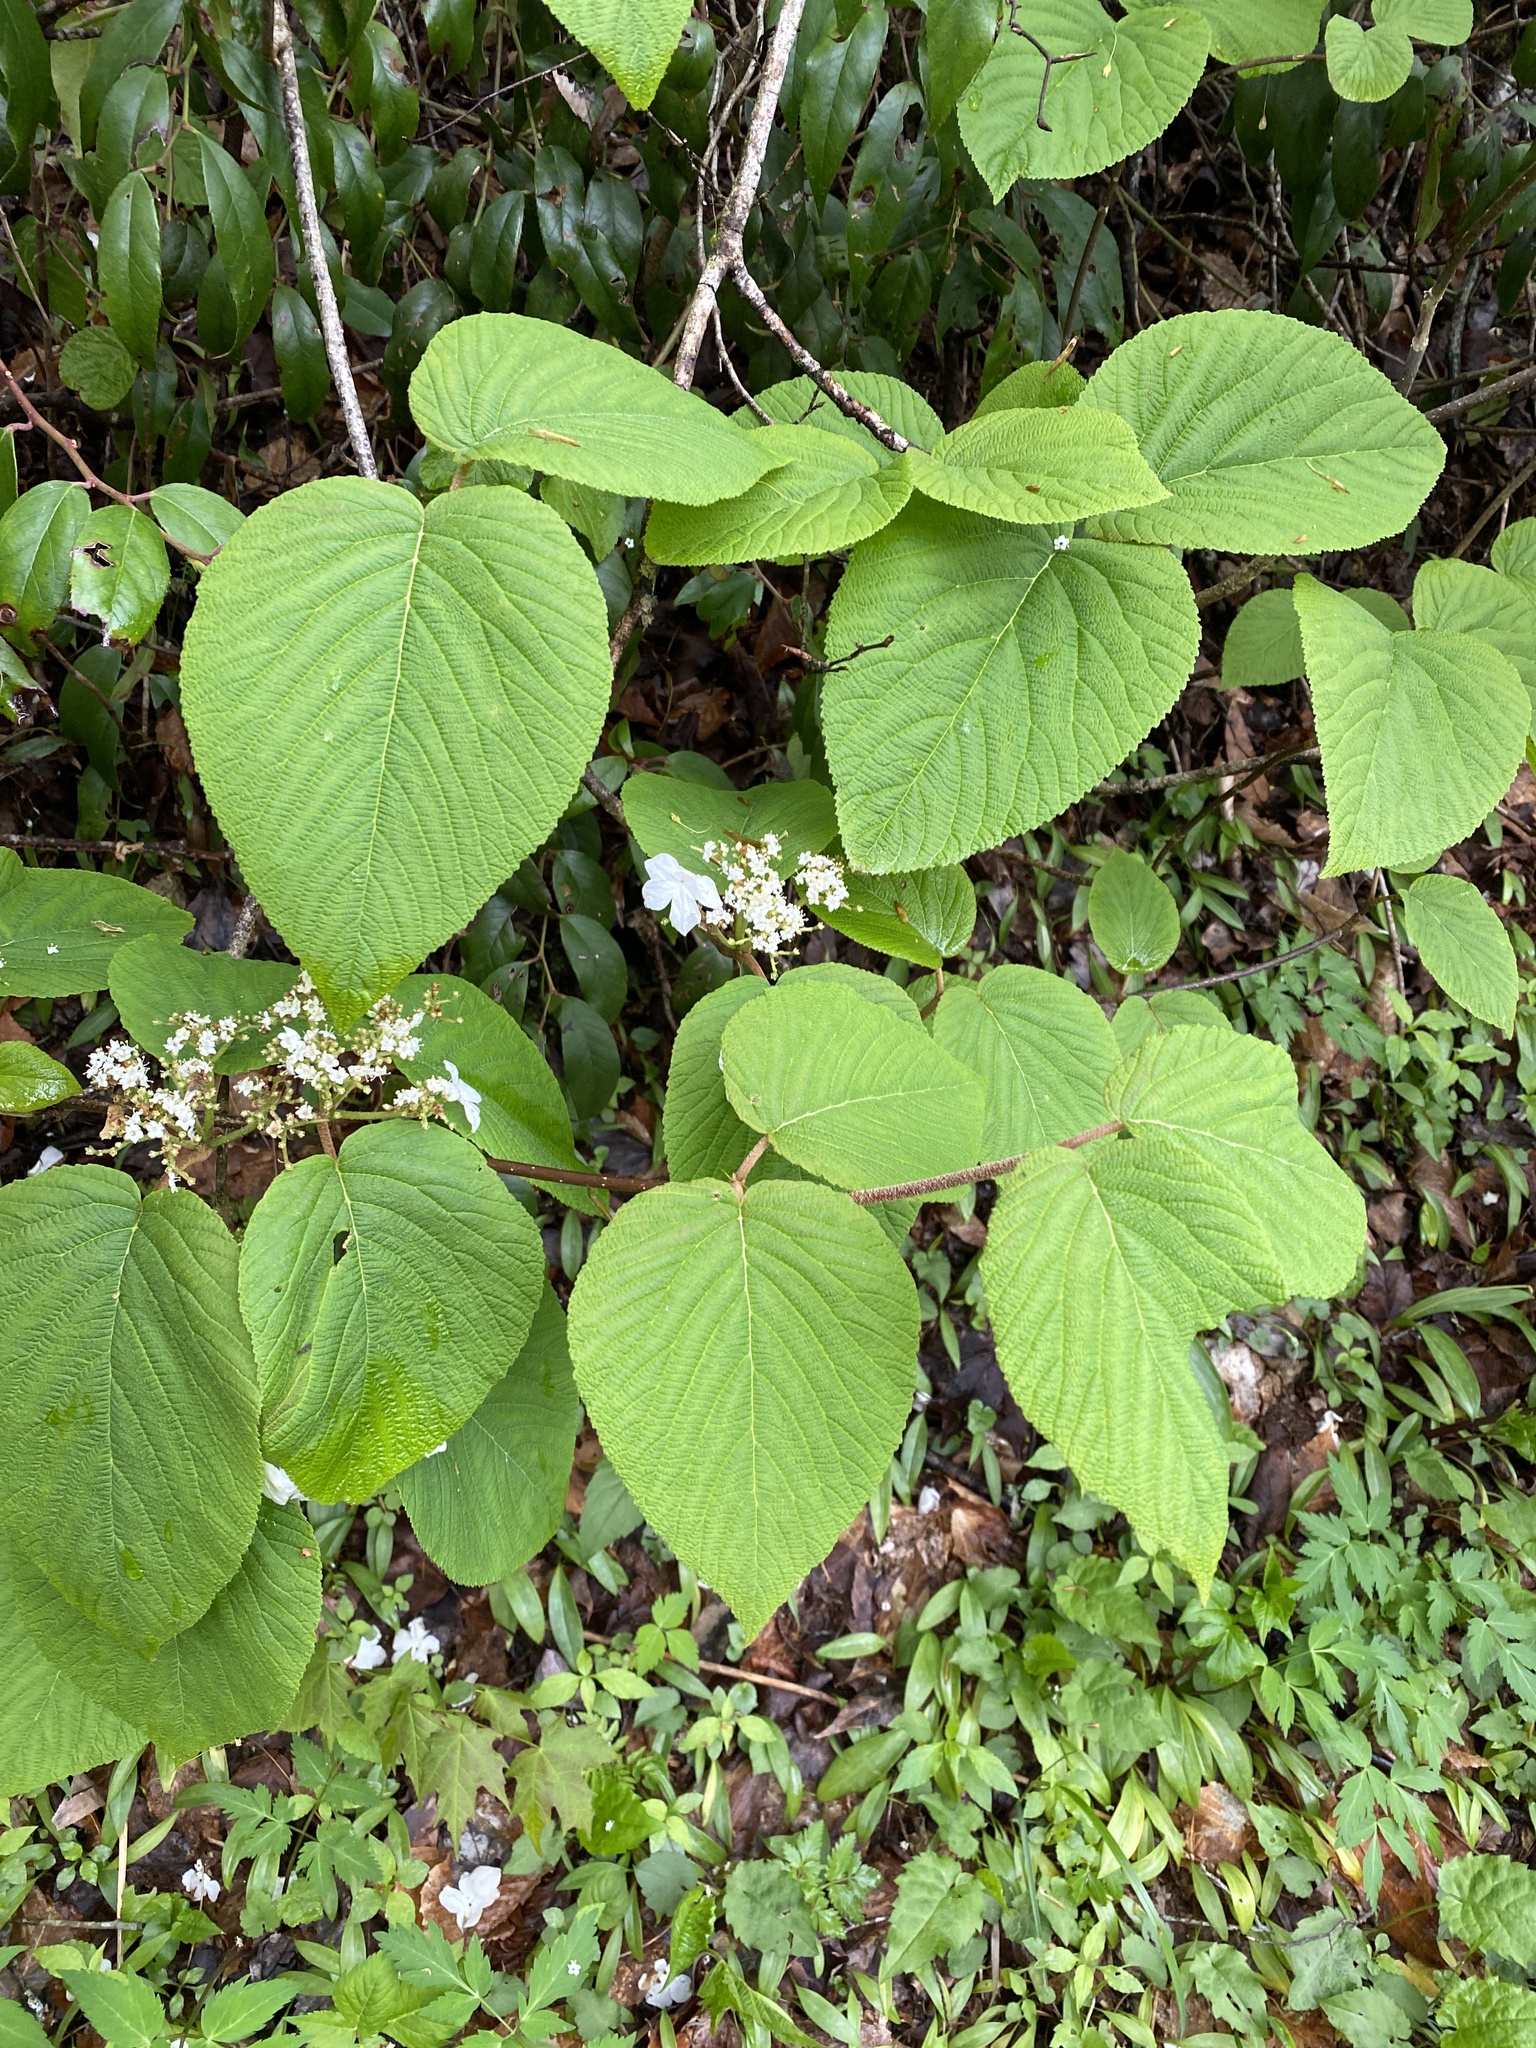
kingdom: Plantae
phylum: Tracheophyta
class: Magnoliopsida
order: Dipsacales
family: Viburnaceae
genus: Viburnum
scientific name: Viburnum lantanoides
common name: Hobblebush
